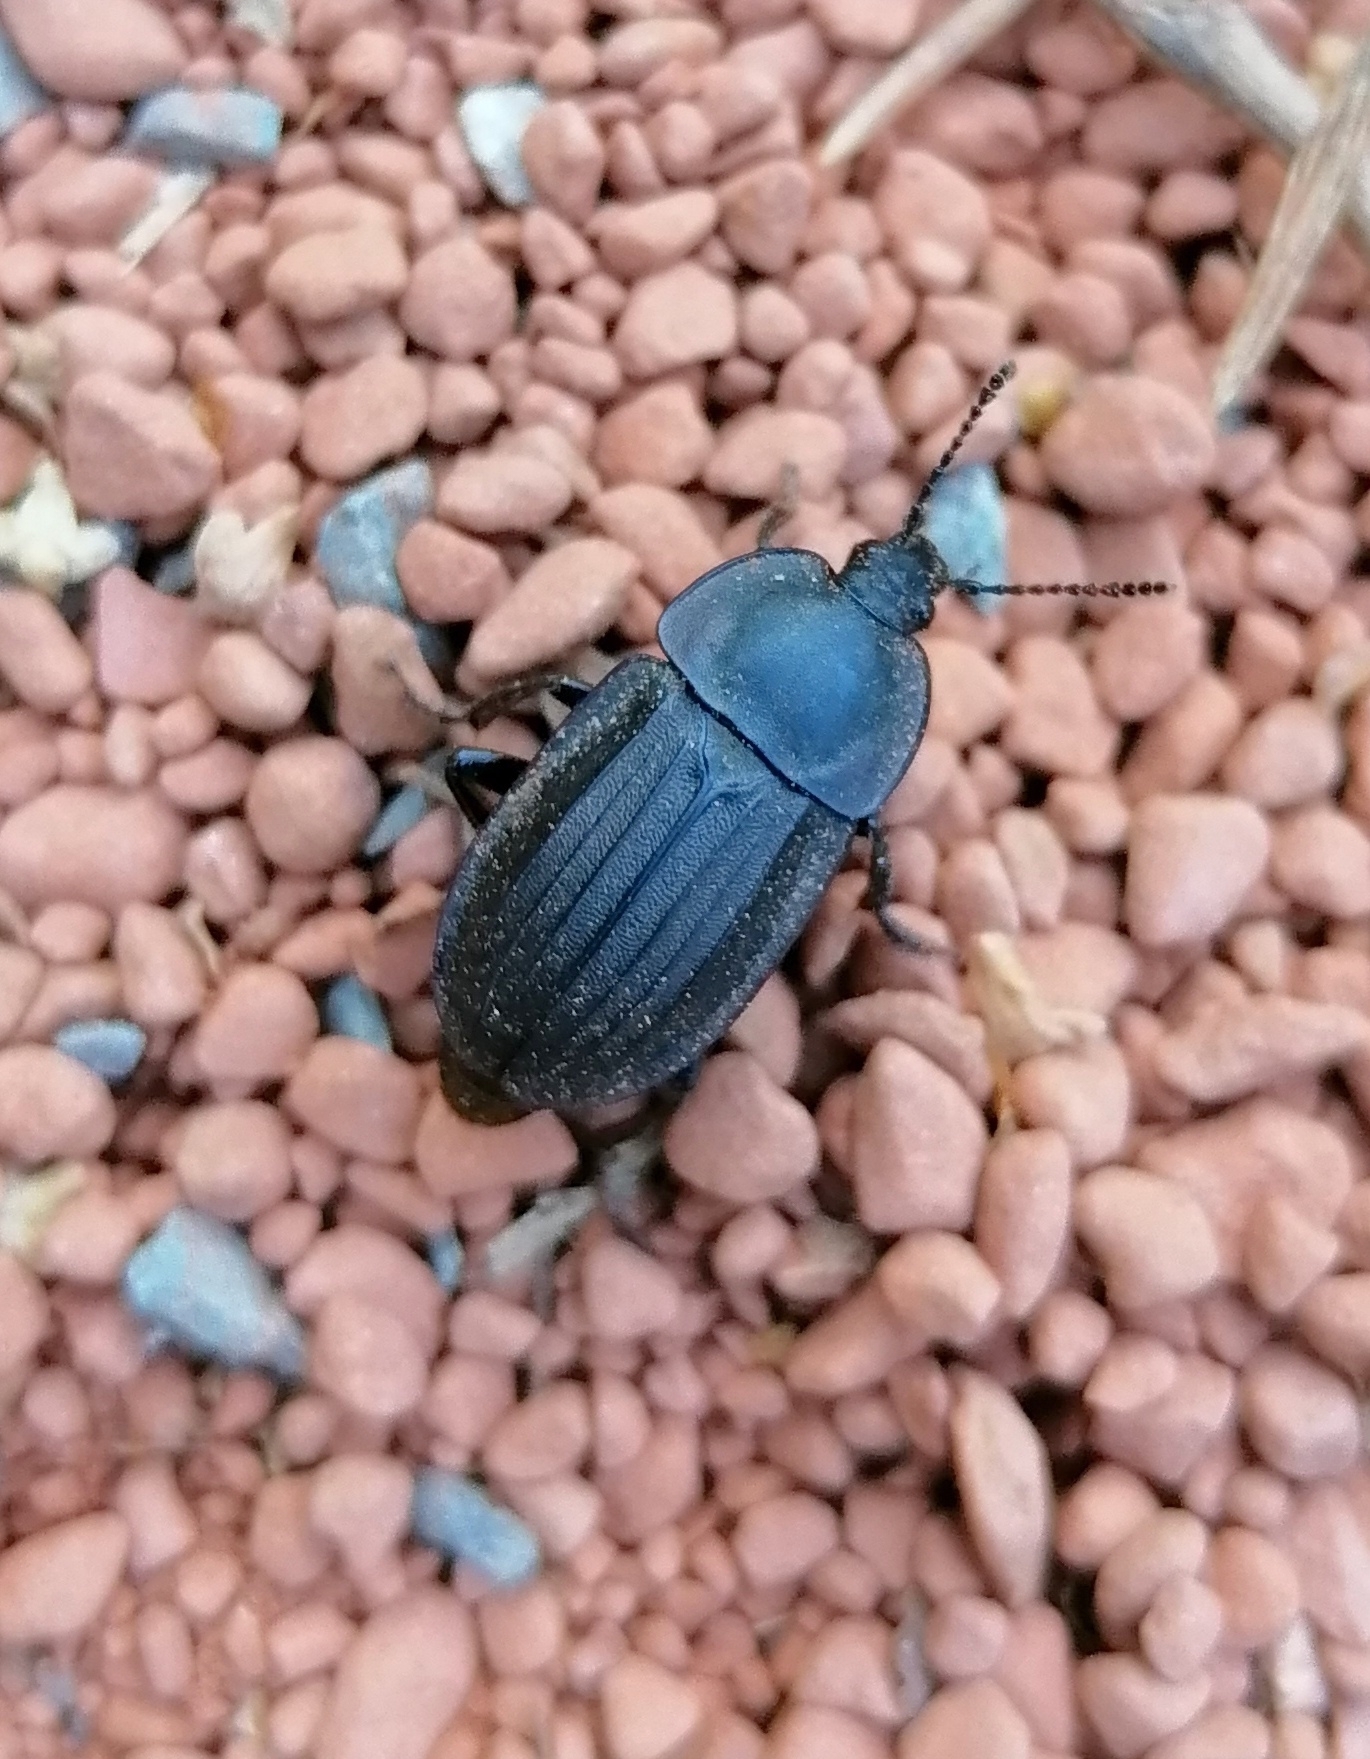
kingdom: Animalia
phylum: Arthropoda
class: Insecta
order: Coleoptera
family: Staphylinidae
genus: Silpha
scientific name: Silpha carinata
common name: Silphid beetle
